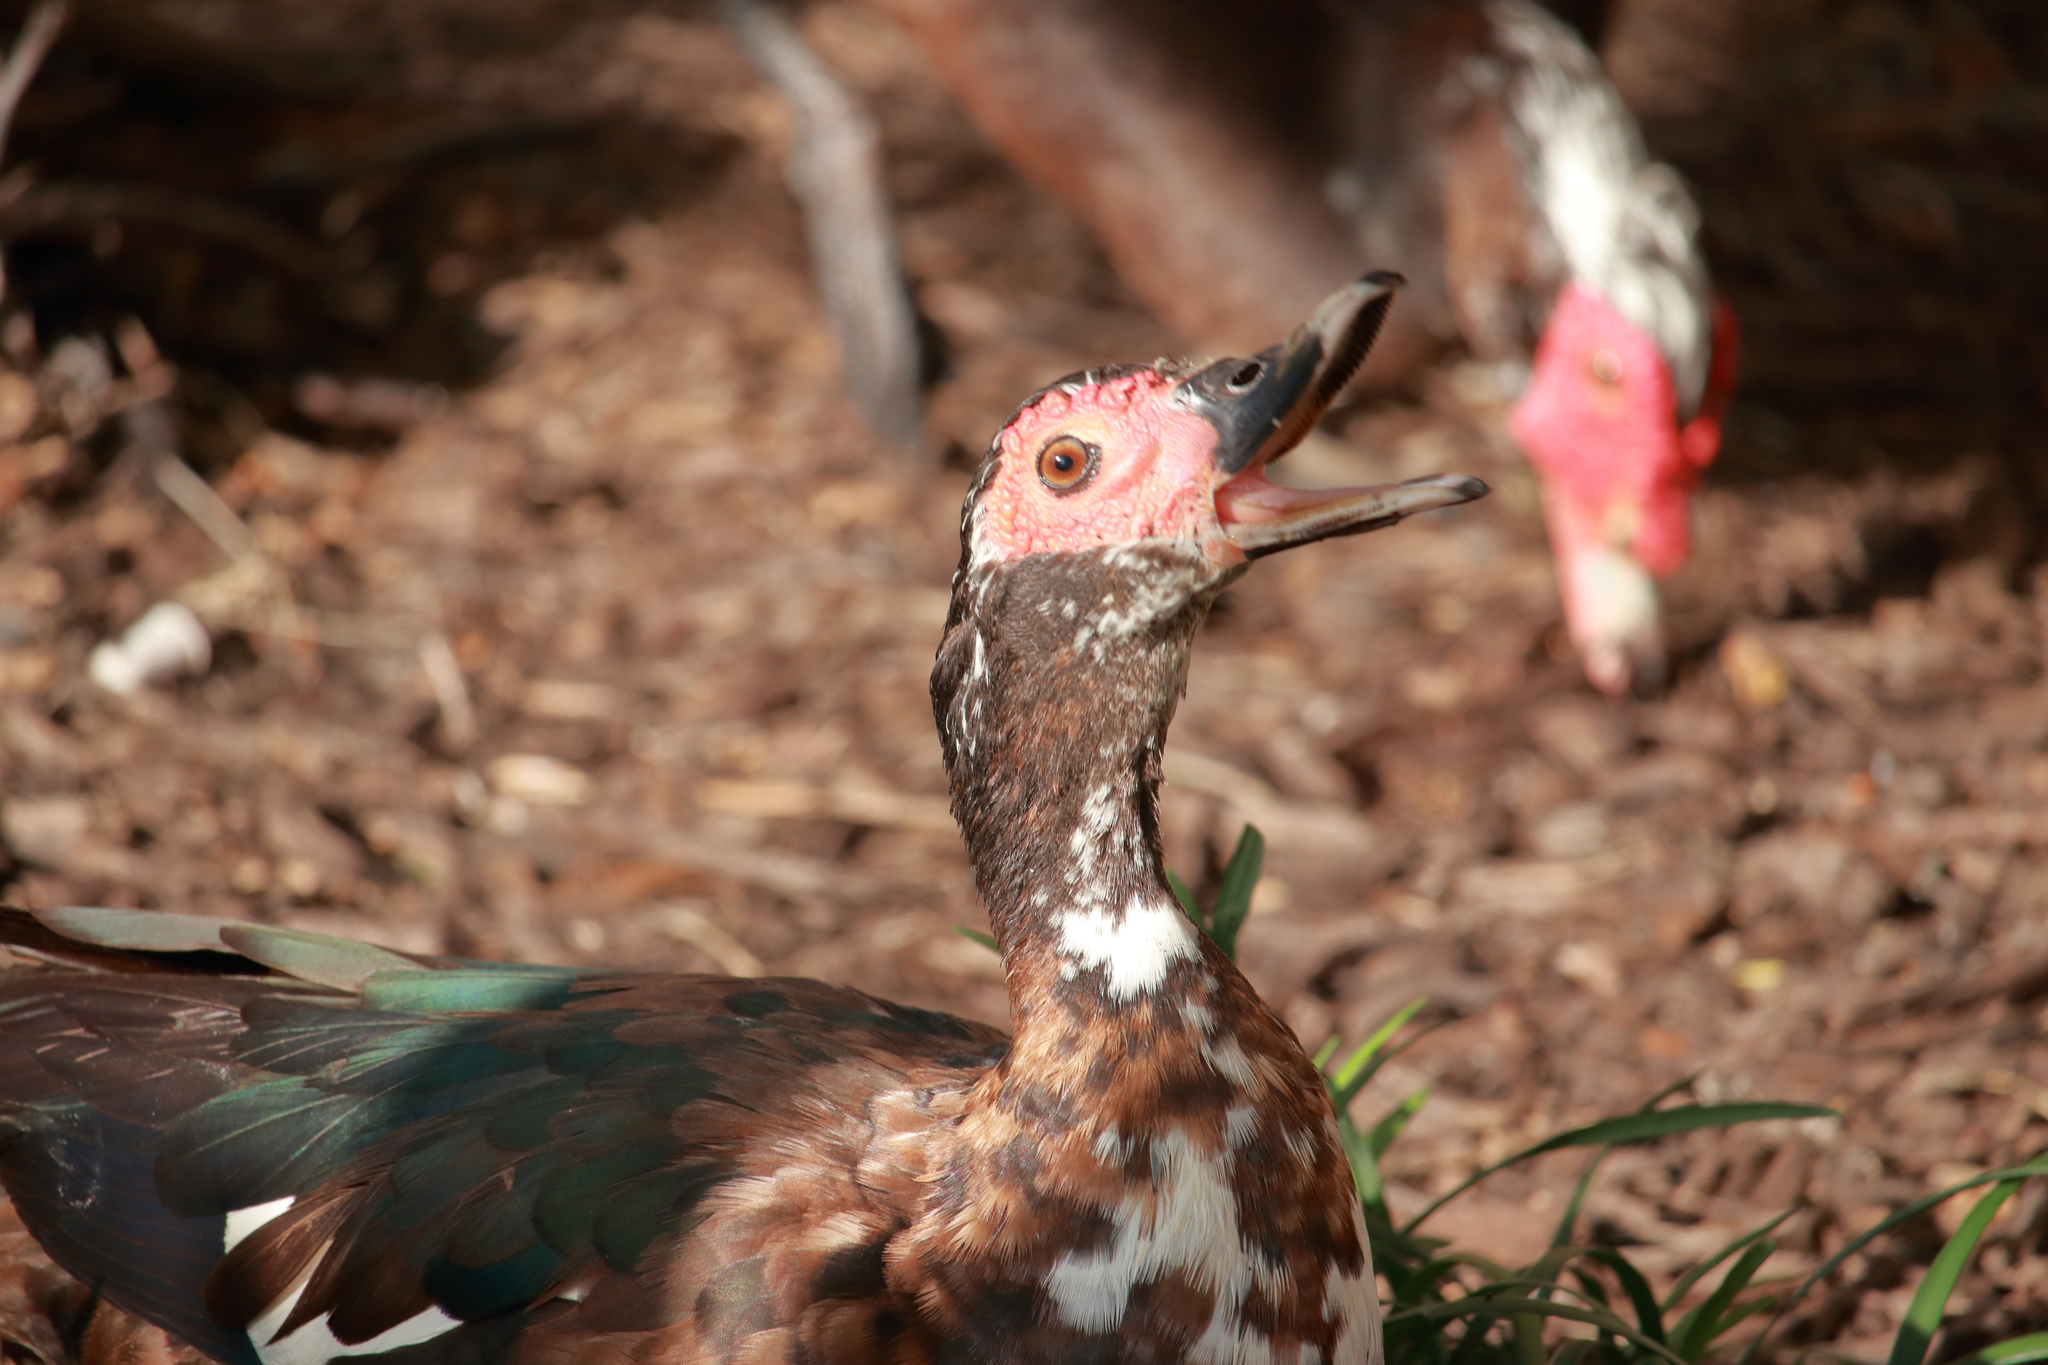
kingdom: Animalia
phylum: Chordata
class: Aves
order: Anseriformes
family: Anatidae
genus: Cairina
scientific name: Cairina moschata
